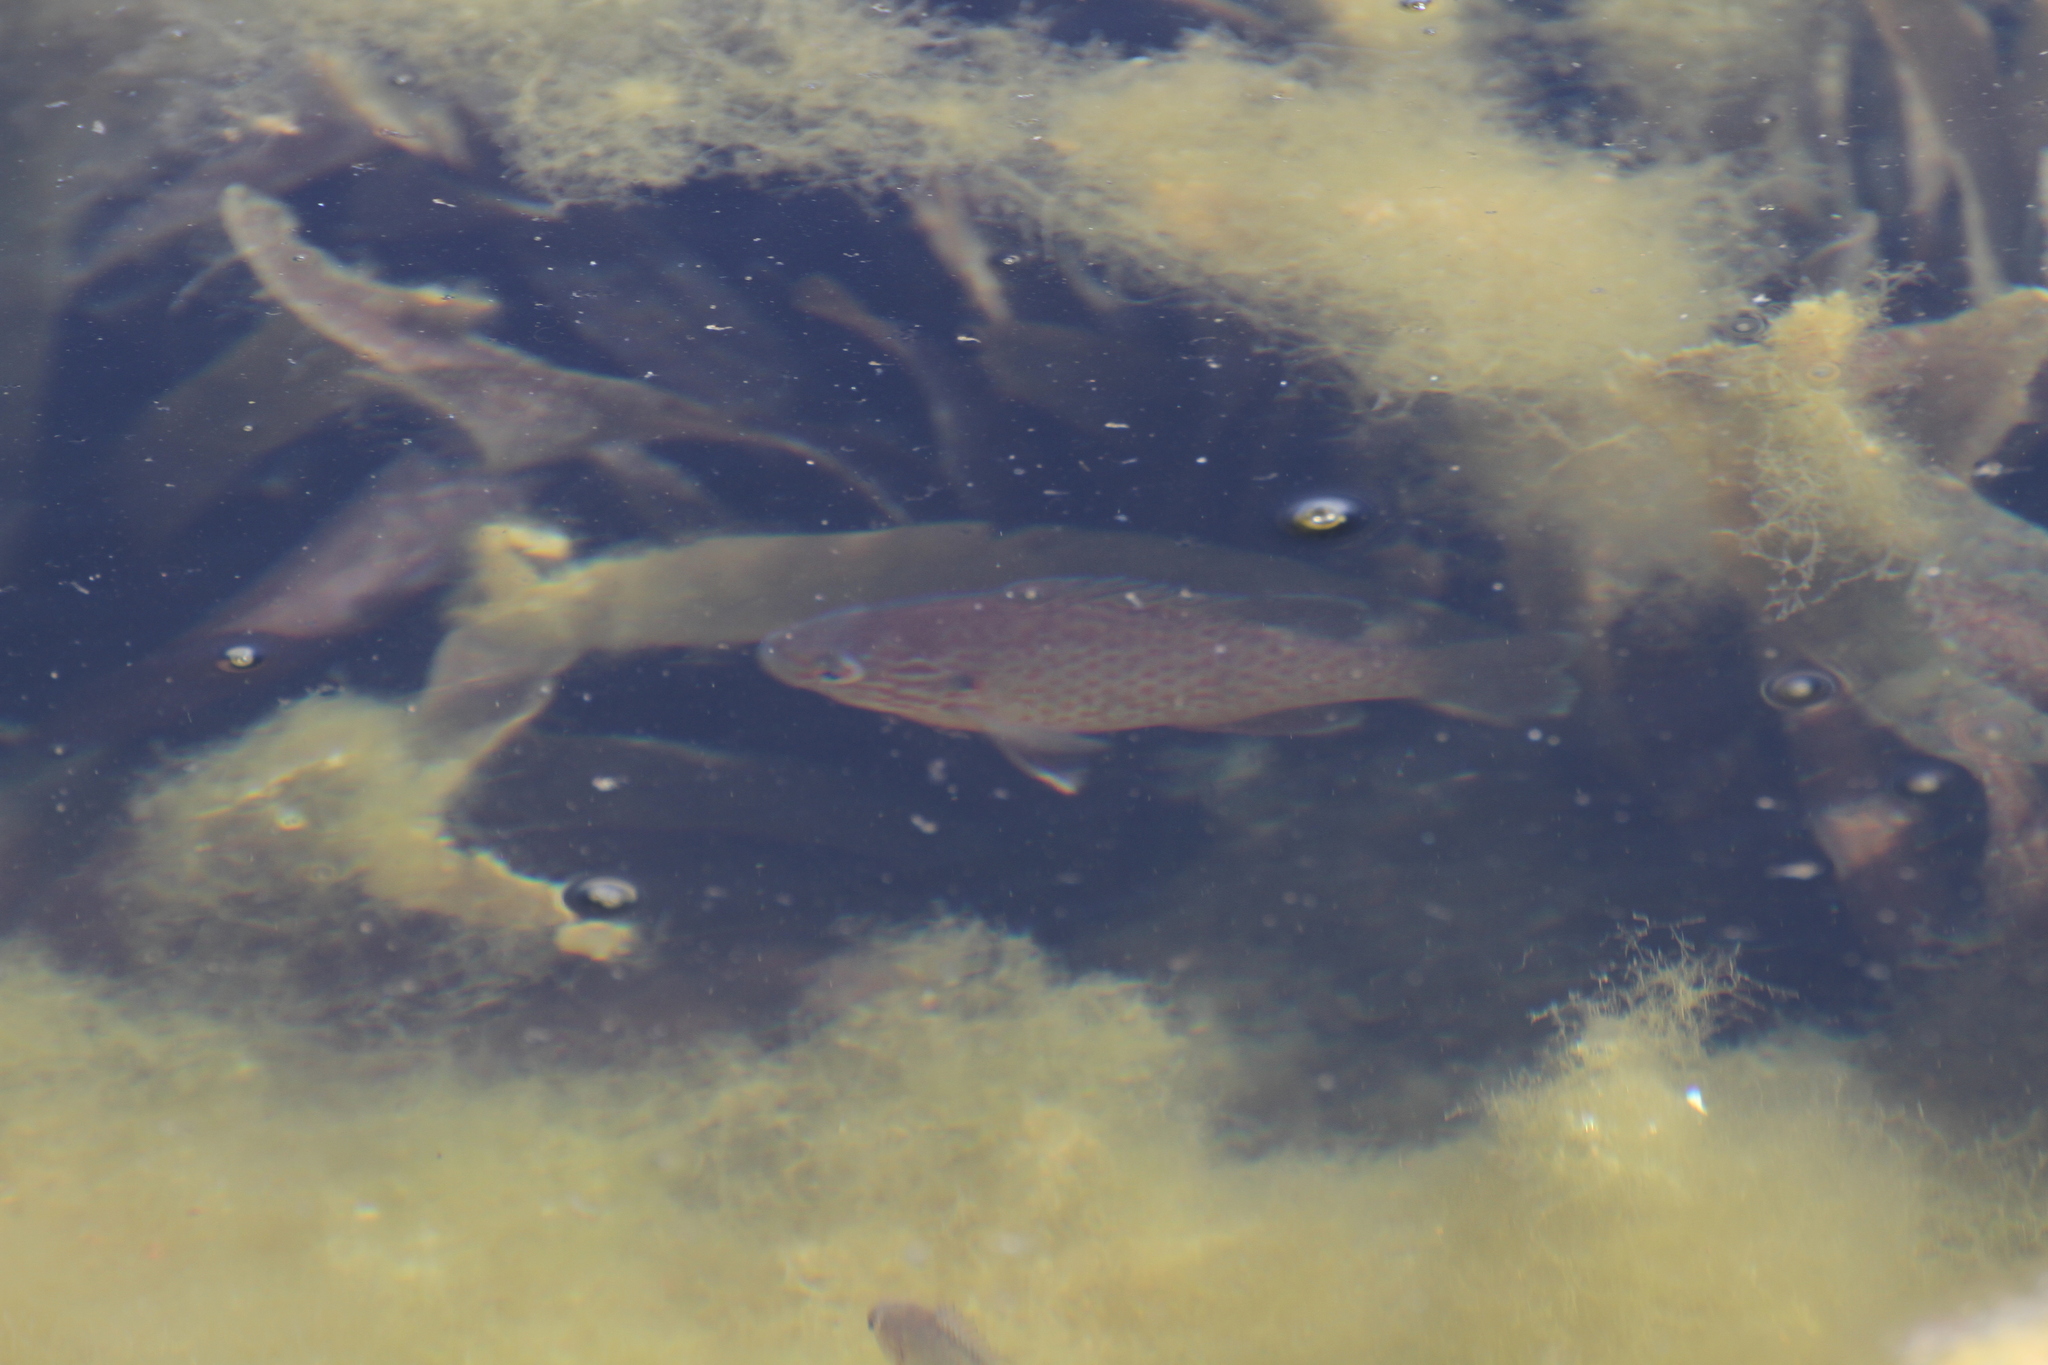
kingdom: Animalia
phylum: Chordata
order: Perciformes
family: Centrarchidae
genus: Lepomis
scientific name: Lepomis gibbosus
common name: Pumpkinseed
